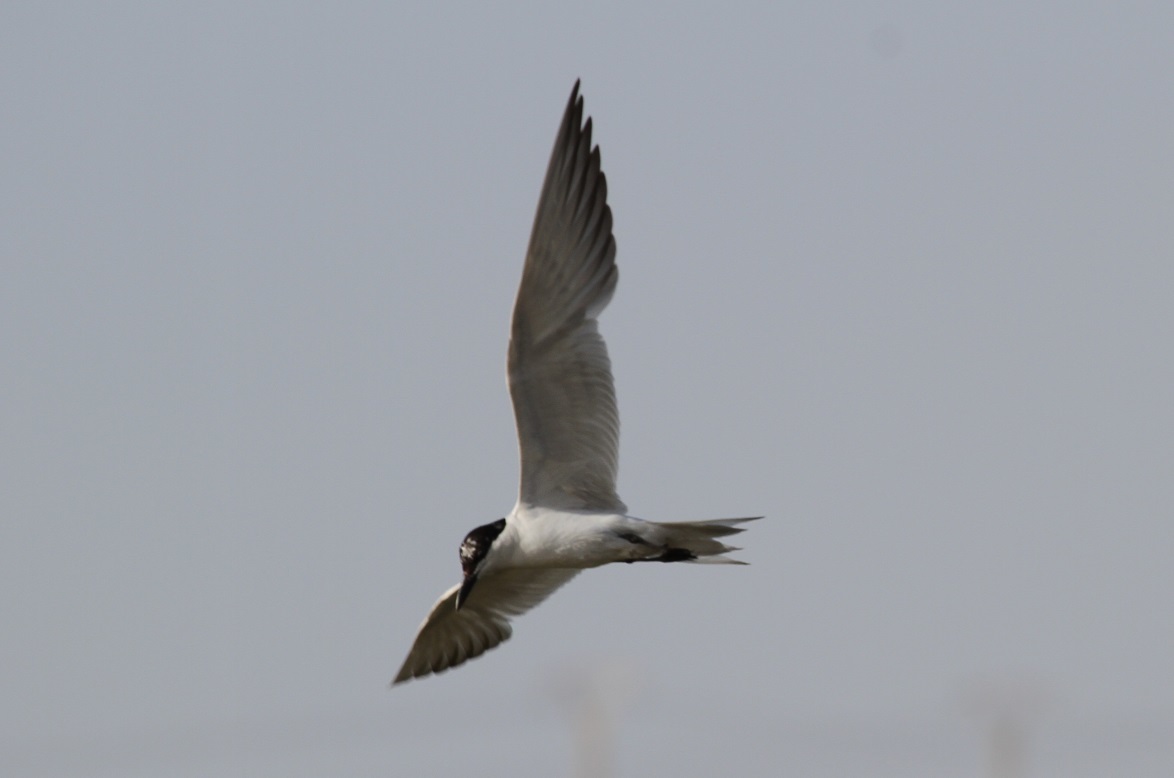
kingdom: Animalia
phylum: Chordata
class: Aves
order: Charadriiformes
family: Laridae
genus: Gelochelidon
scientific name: Gelochelidon nilotica
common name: Gull-billed tern
